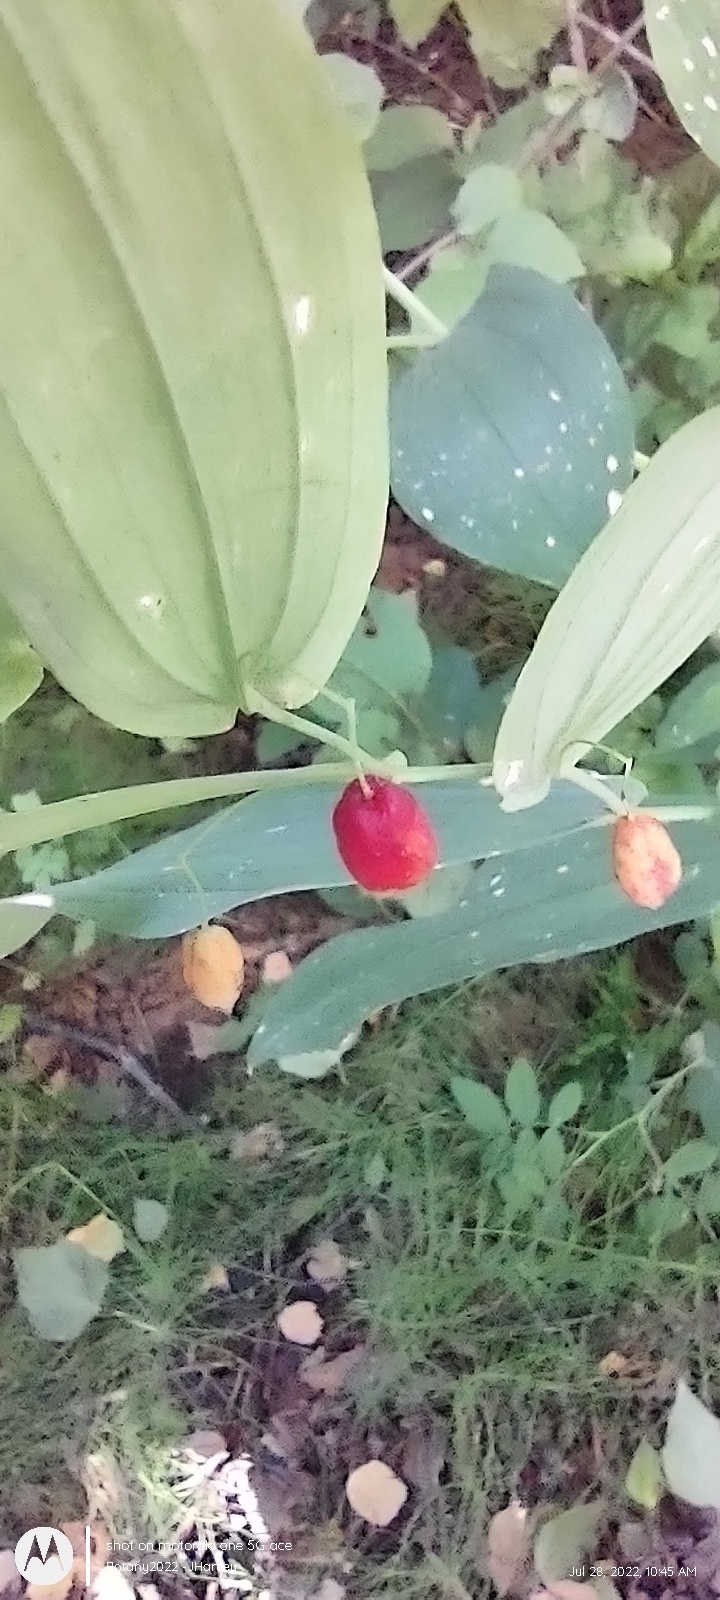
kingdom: Plantae
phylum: Tracheophyta
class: Liliopsida
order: Liliales
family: Liliaceae
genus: Streptopus
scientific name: Streptopus amplexifolius
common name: Clasp twisted stalk
